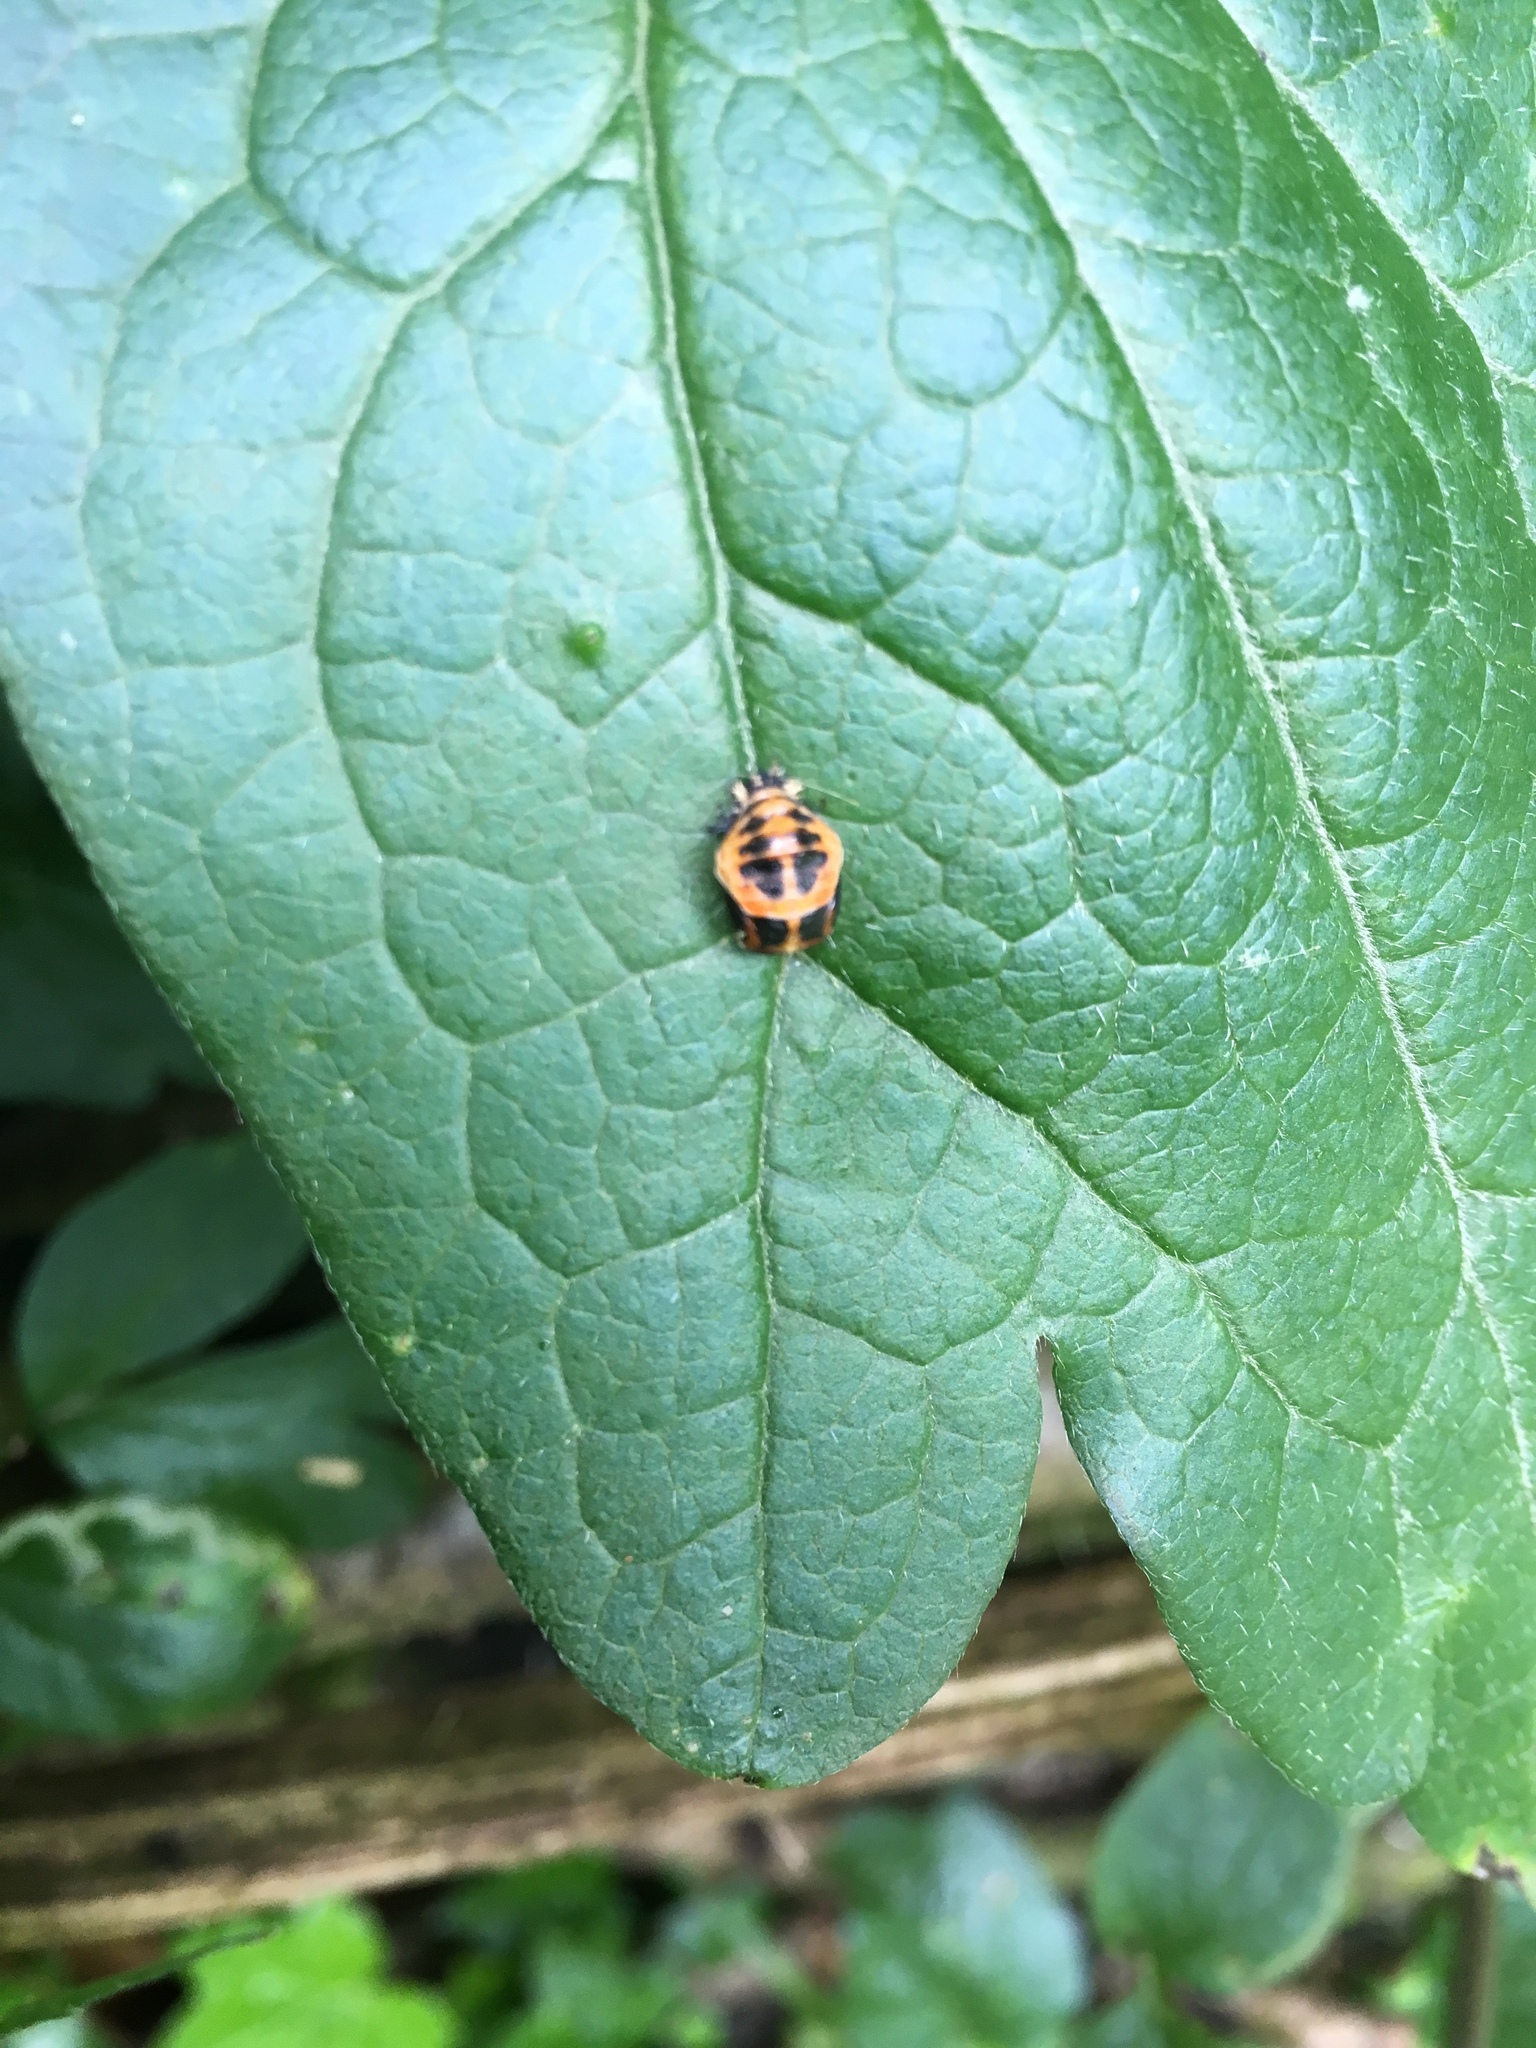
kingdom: Animalia
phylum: Arthropoda
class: Insecta
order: Coleoptera
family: Coccinellidae
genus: Harmonia
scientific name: Harmonia axyridis
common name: Harlequin ladybird
